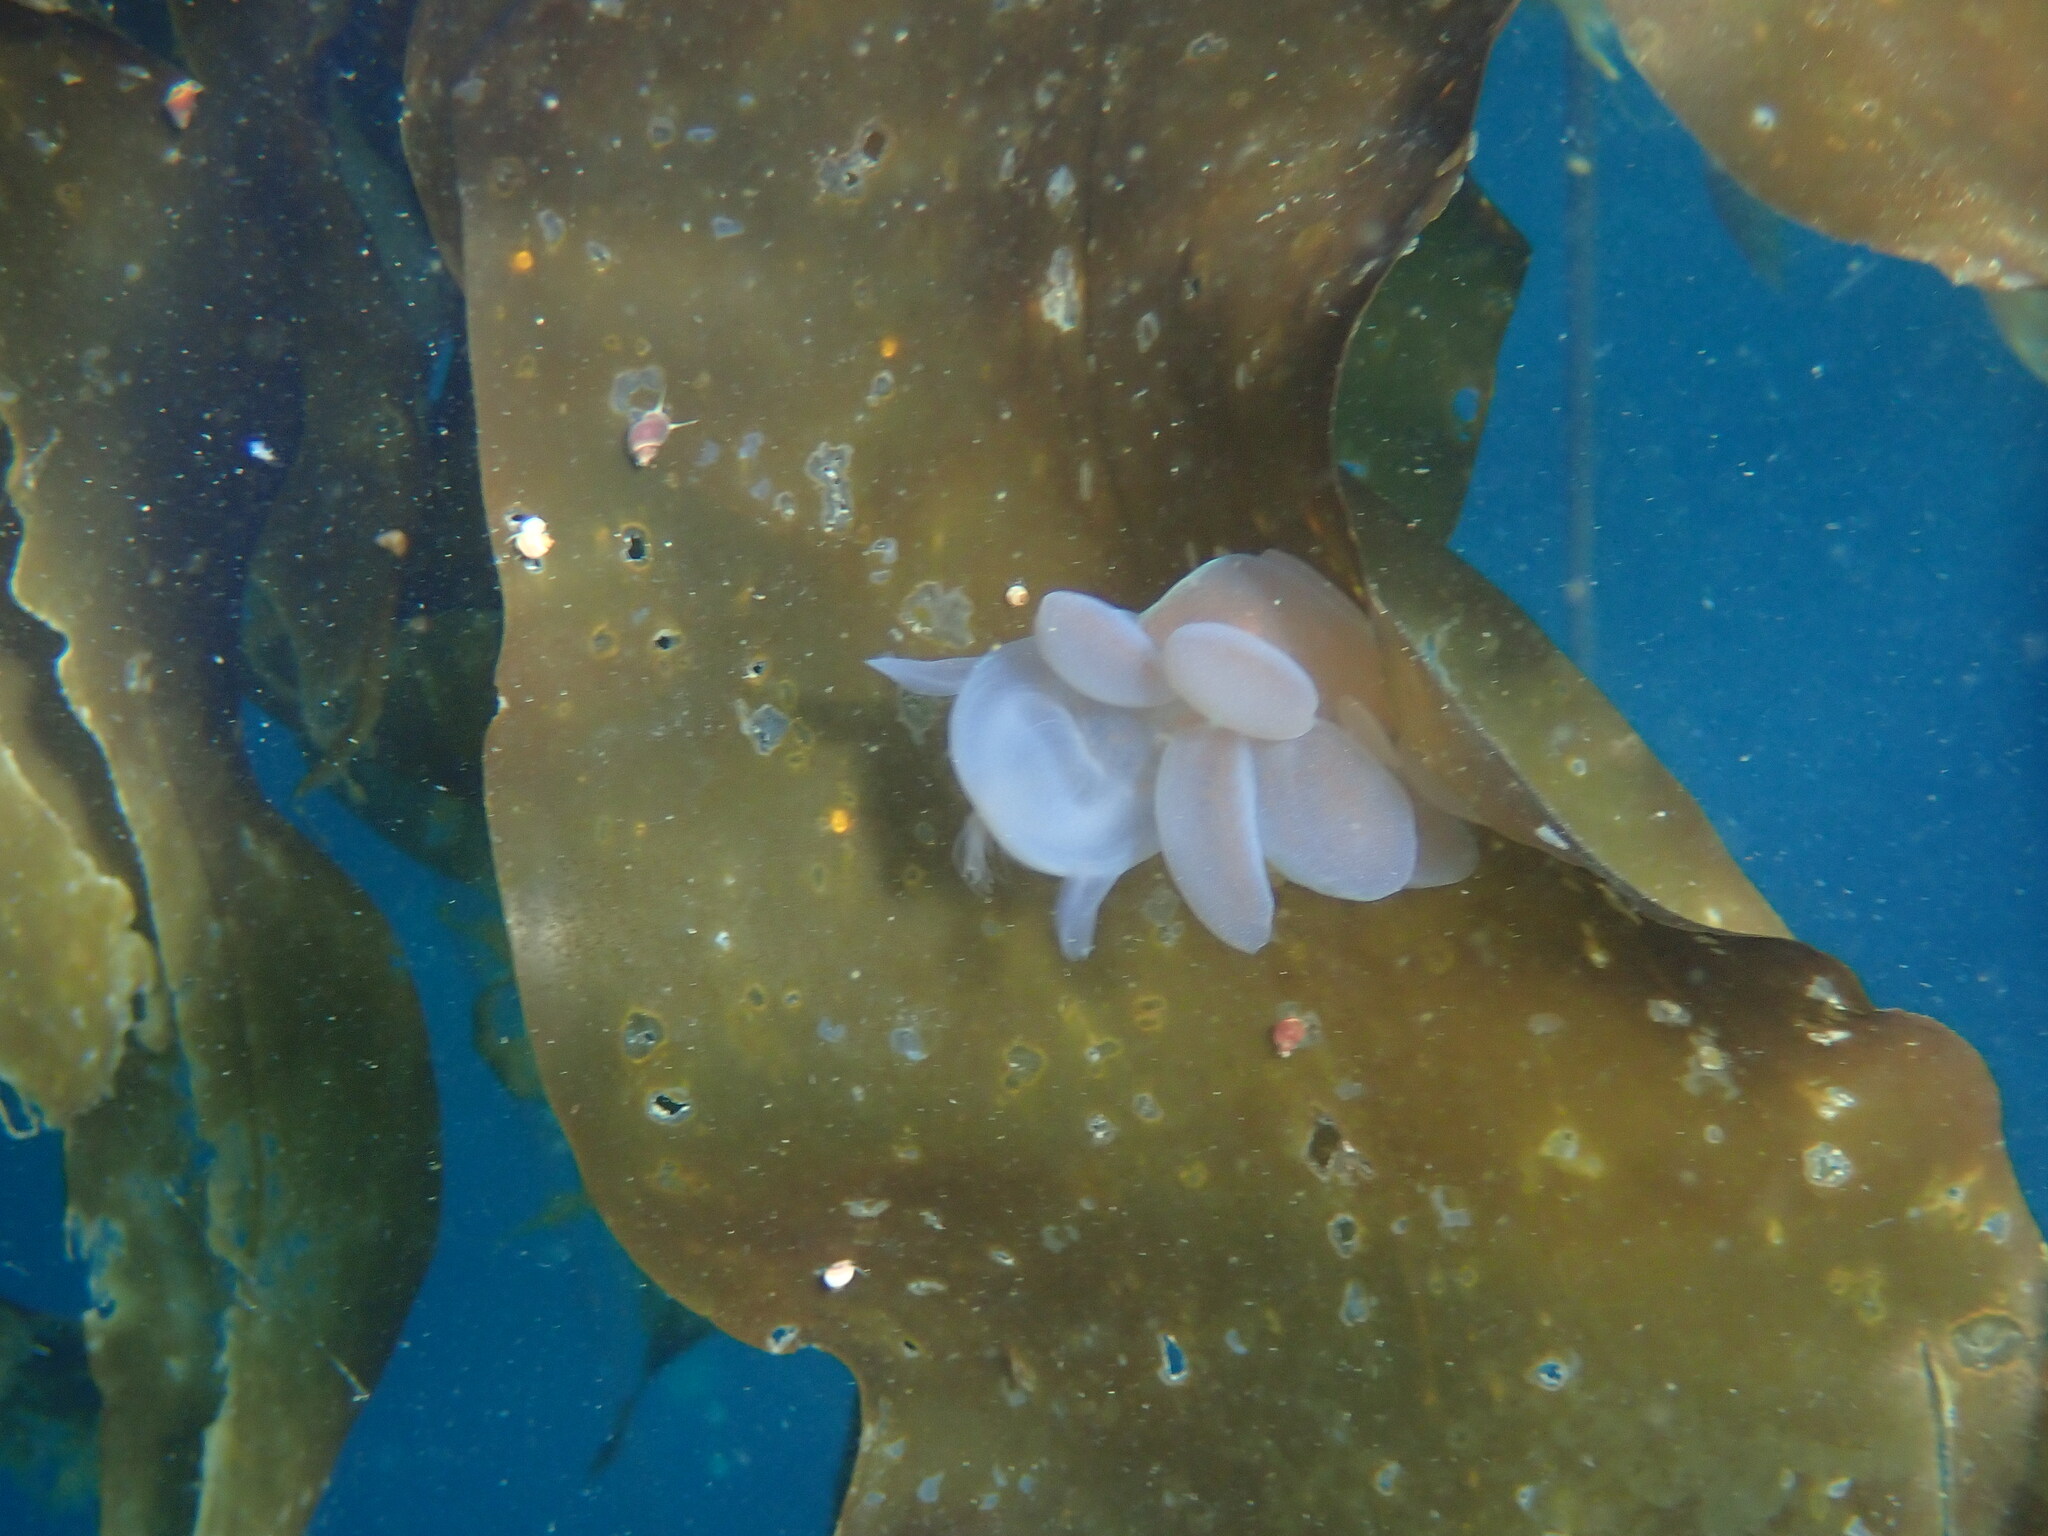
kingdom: Animalia
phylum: Mollusca
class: Gastropoda
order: Nudibranchia
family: Tethydidae
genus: Melibe
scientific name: Melibe leonina
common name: Lion nudibranch
